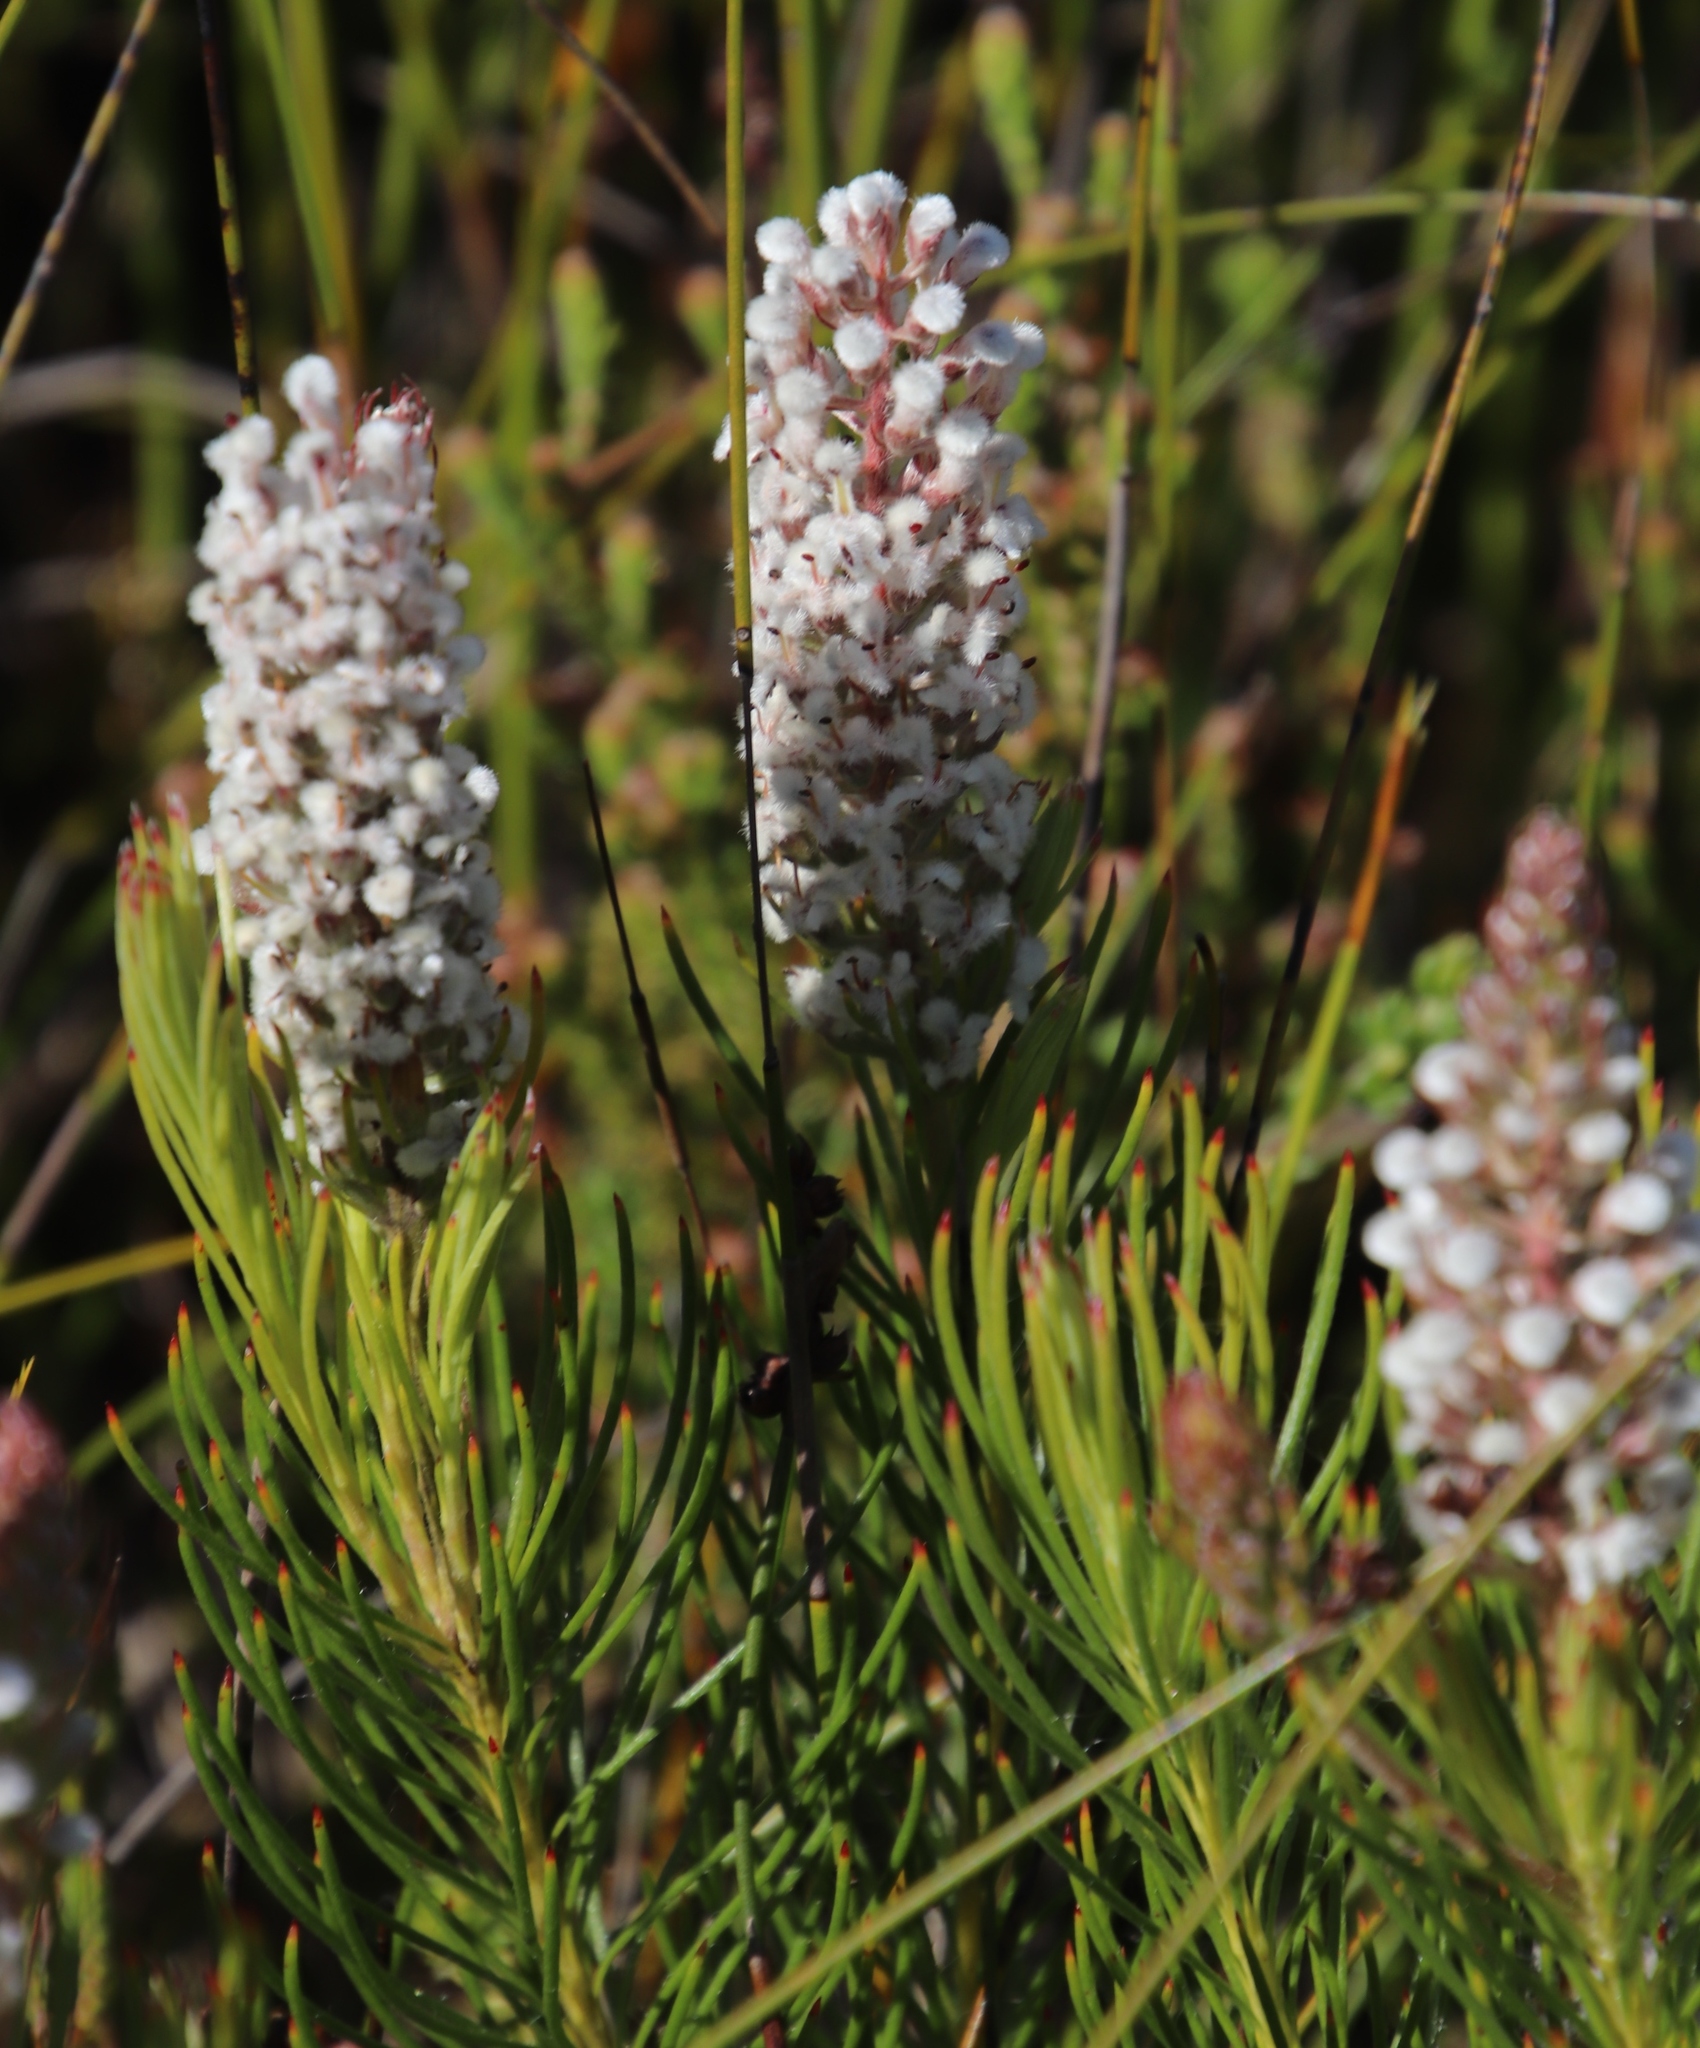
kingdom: Plantae
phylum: Tracheophyta
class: Magnoliopsida
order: Proteales
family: Proteaceae
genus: Spatalla
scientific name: Spatalla curvifolia
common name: White-stalked spoon
